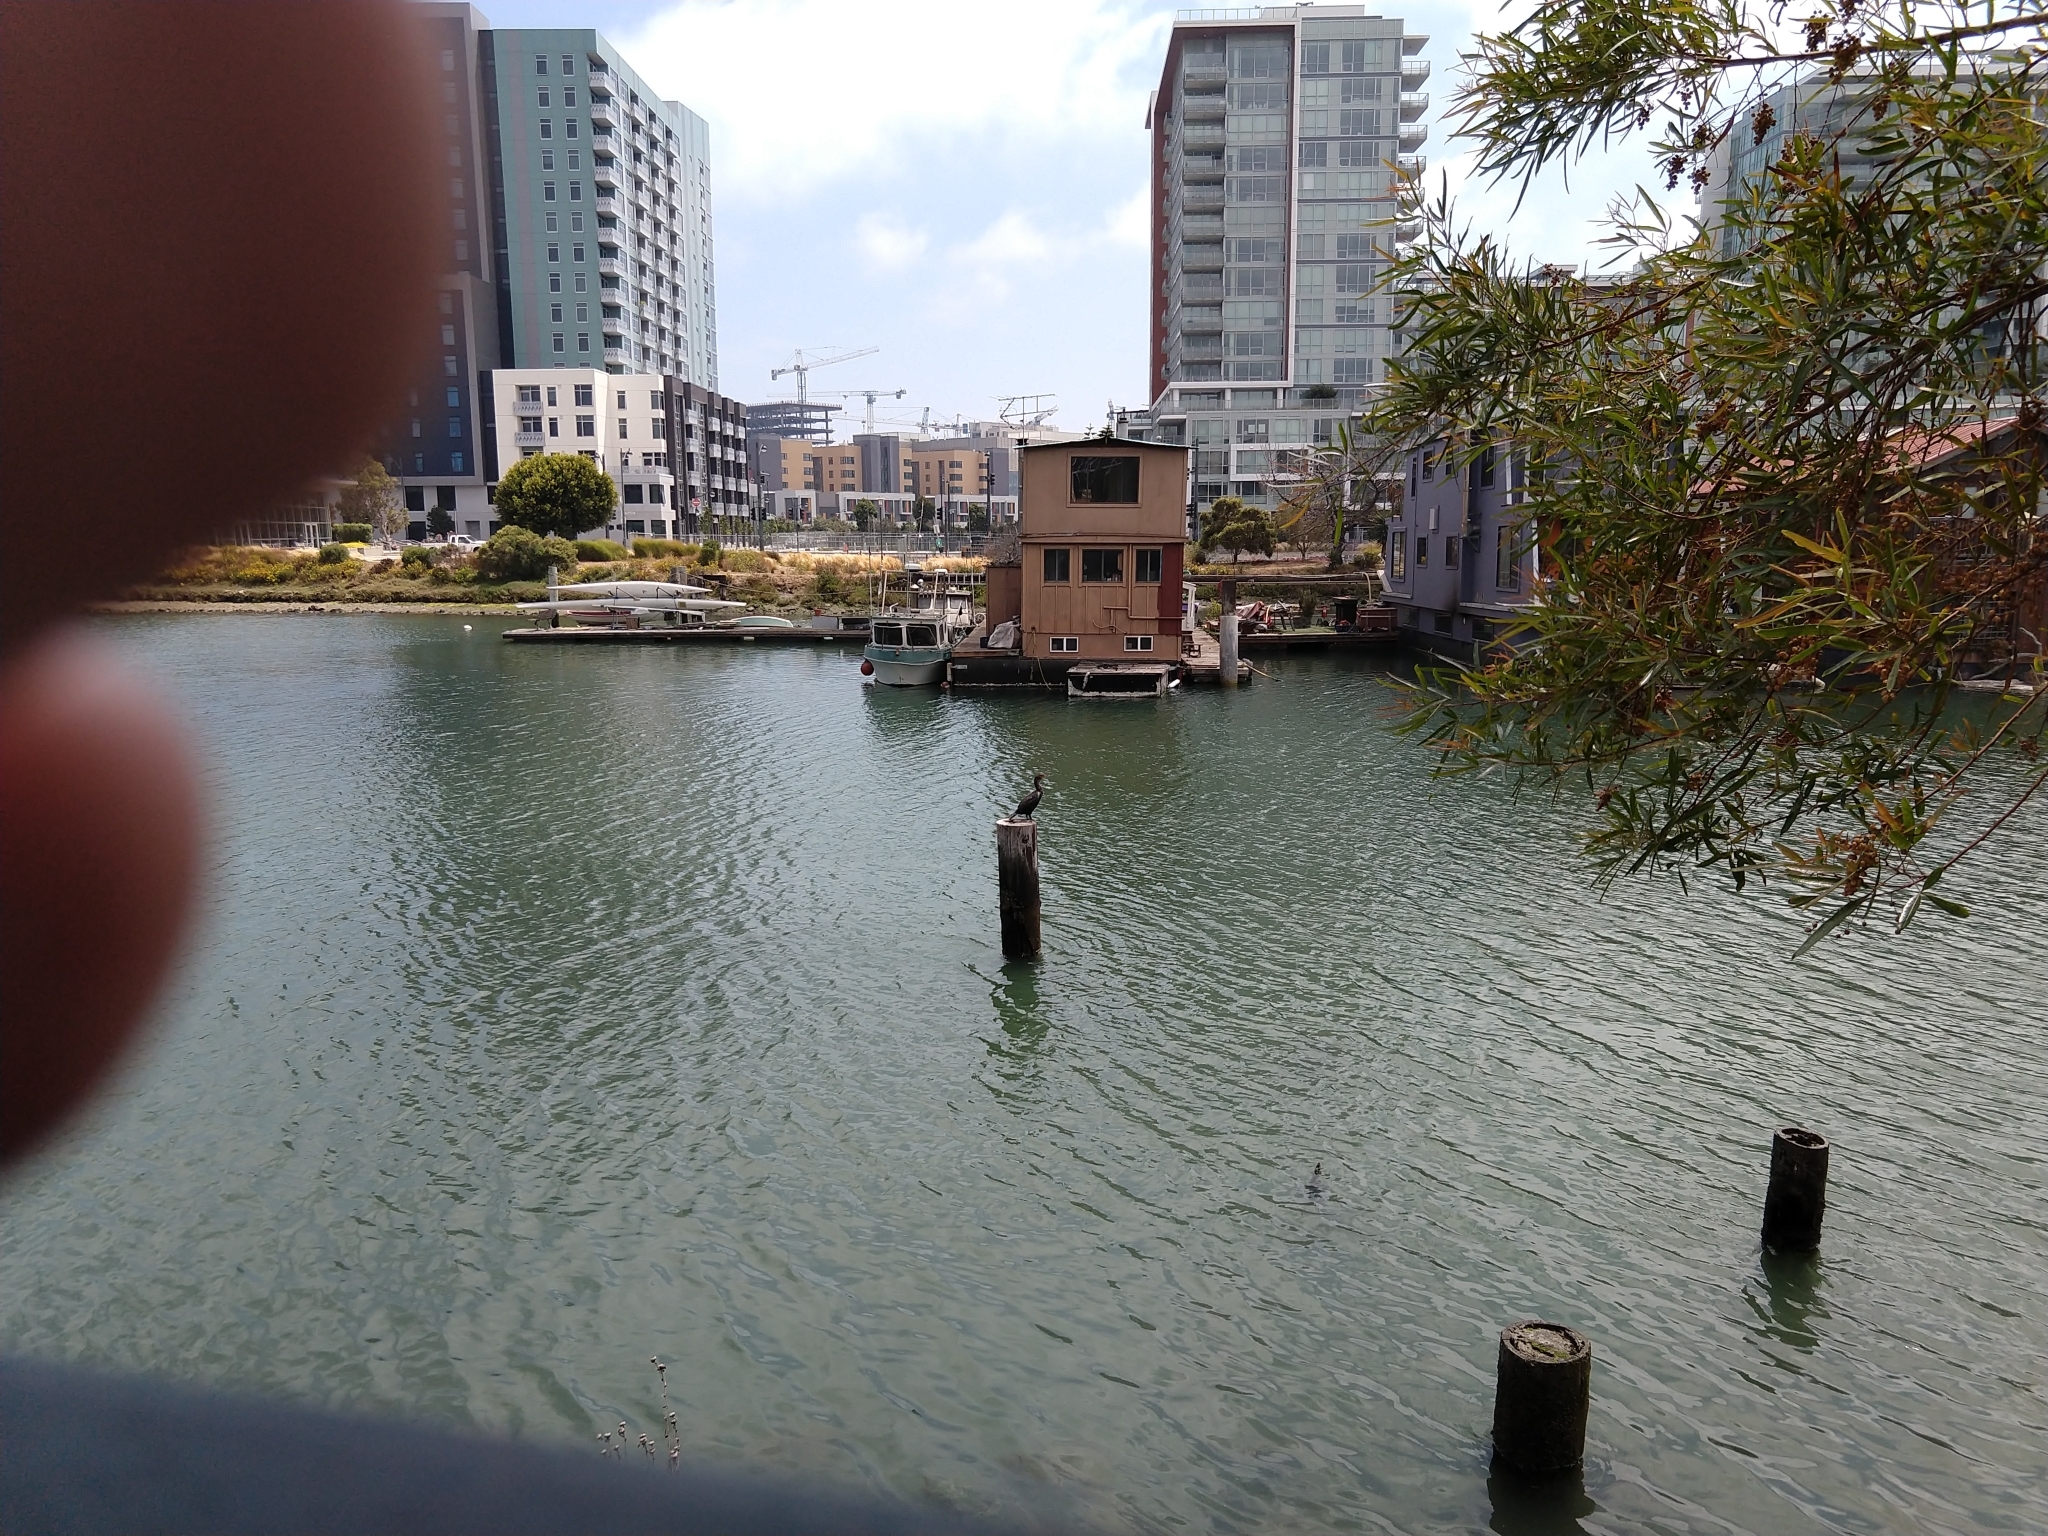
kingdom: Animalia
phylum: Chordata
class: Aves
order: Suliformes
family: Phalacrocoracidae
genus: Phalacrocorax
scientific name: Phalacrocorax auritus
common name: Double-crested cormorant
